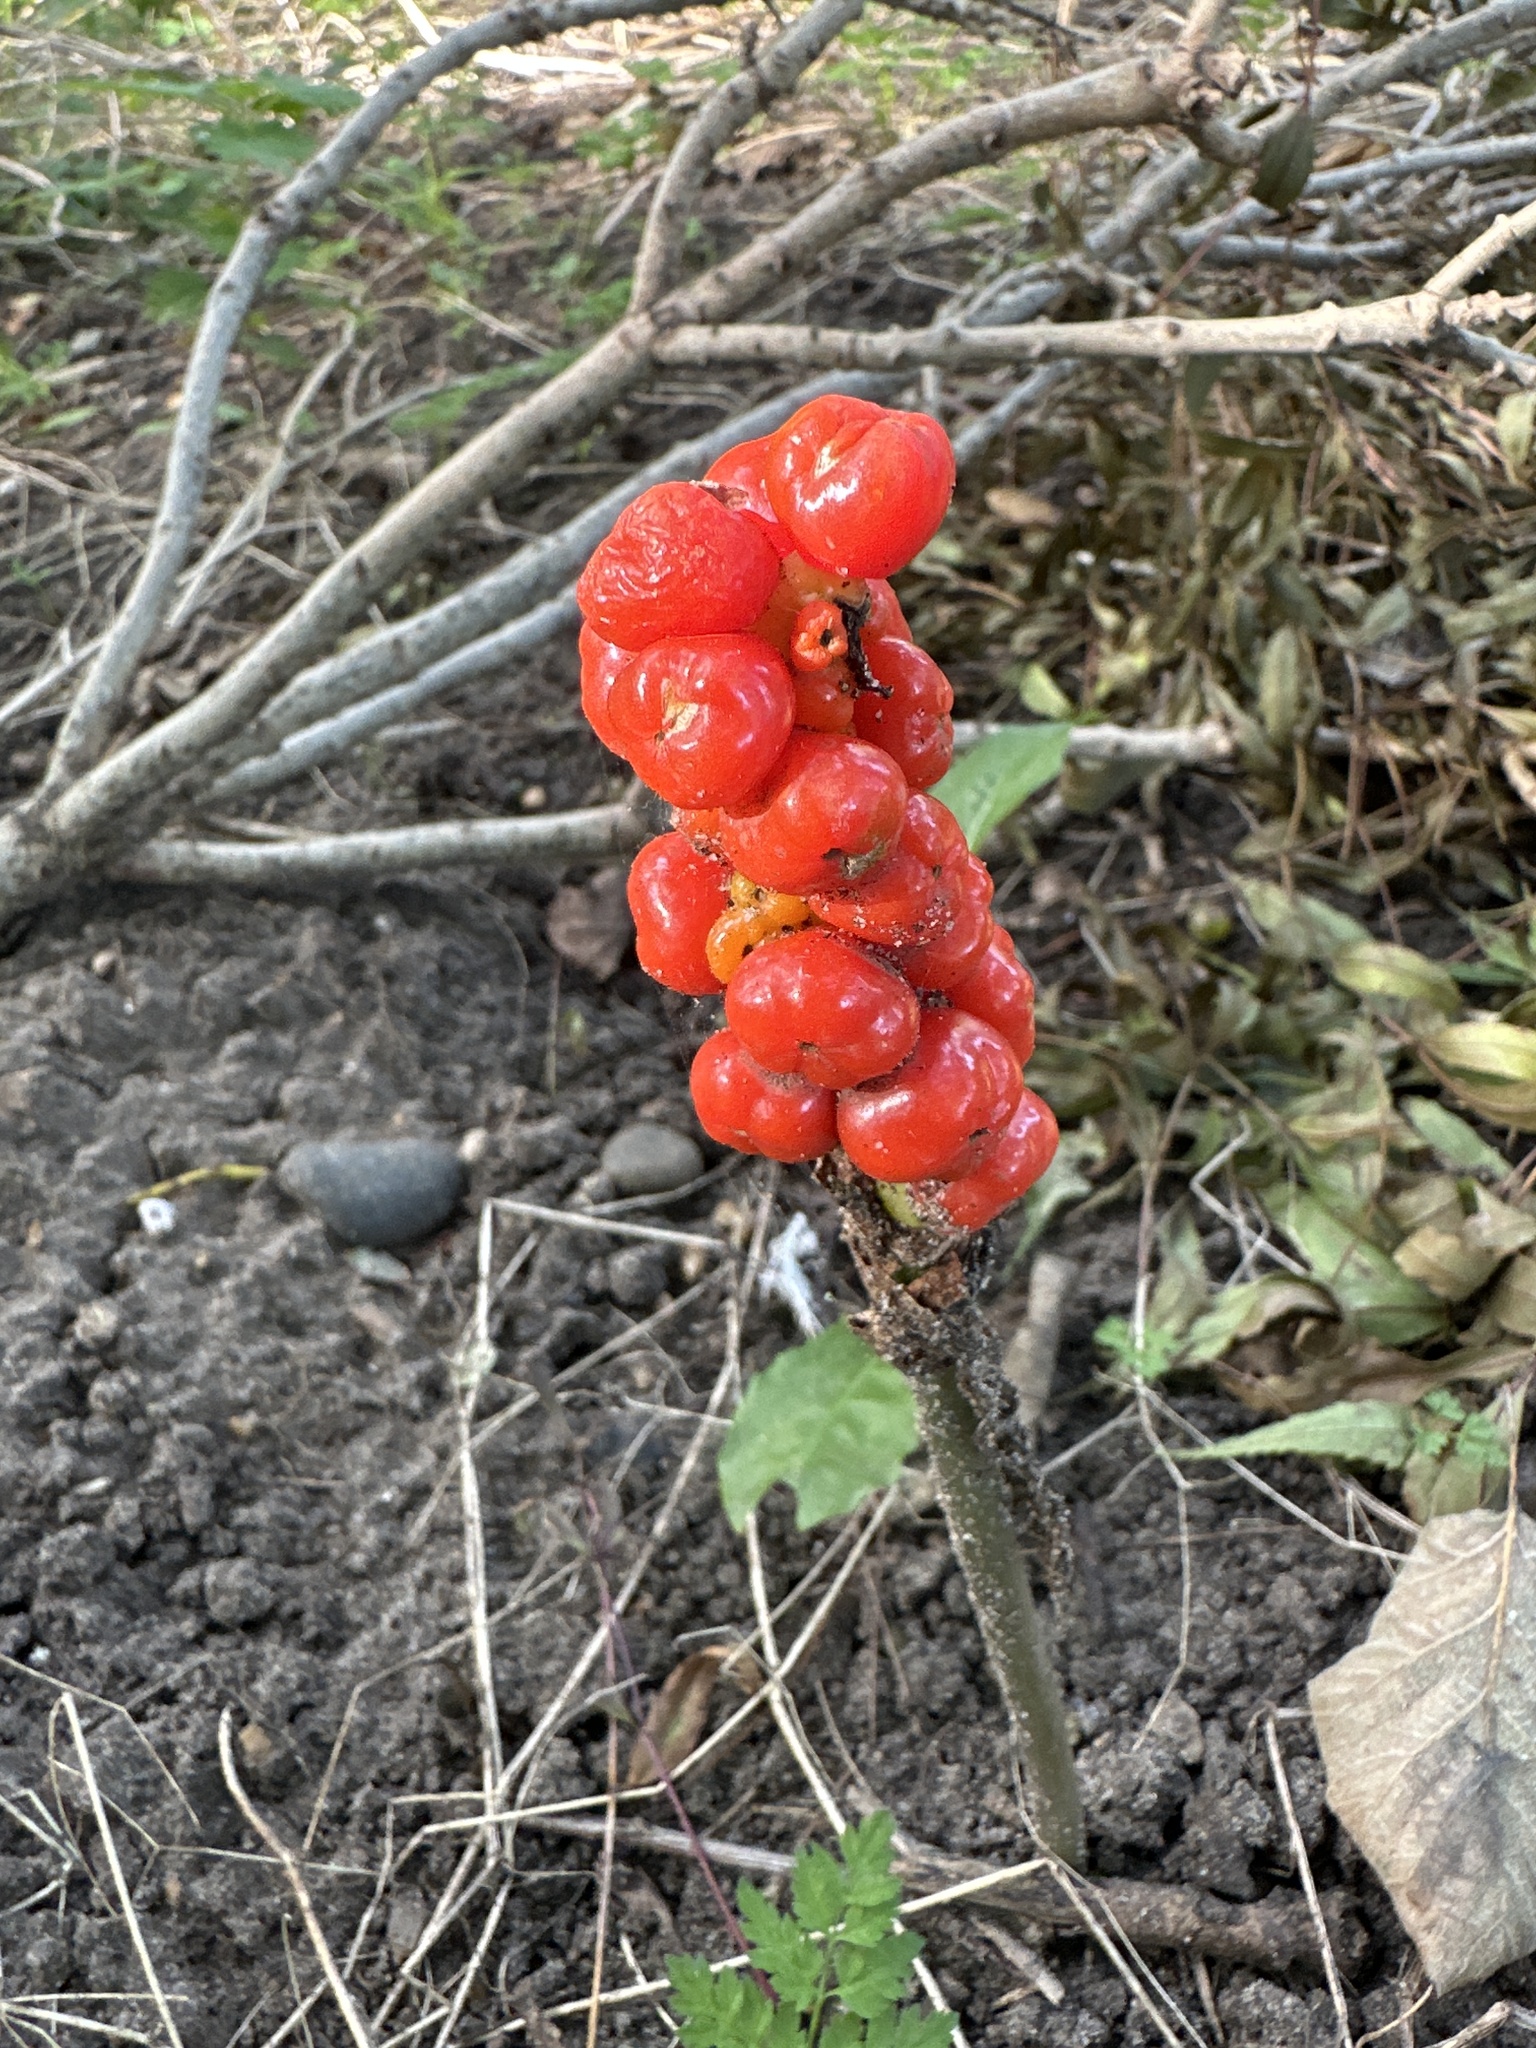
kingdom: Plantae
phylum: Tracheophyta
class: Liliopsida
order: Alismatales
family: Araceae
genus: Arum
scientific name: Arum maculatum
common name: Lords-and-ladies
